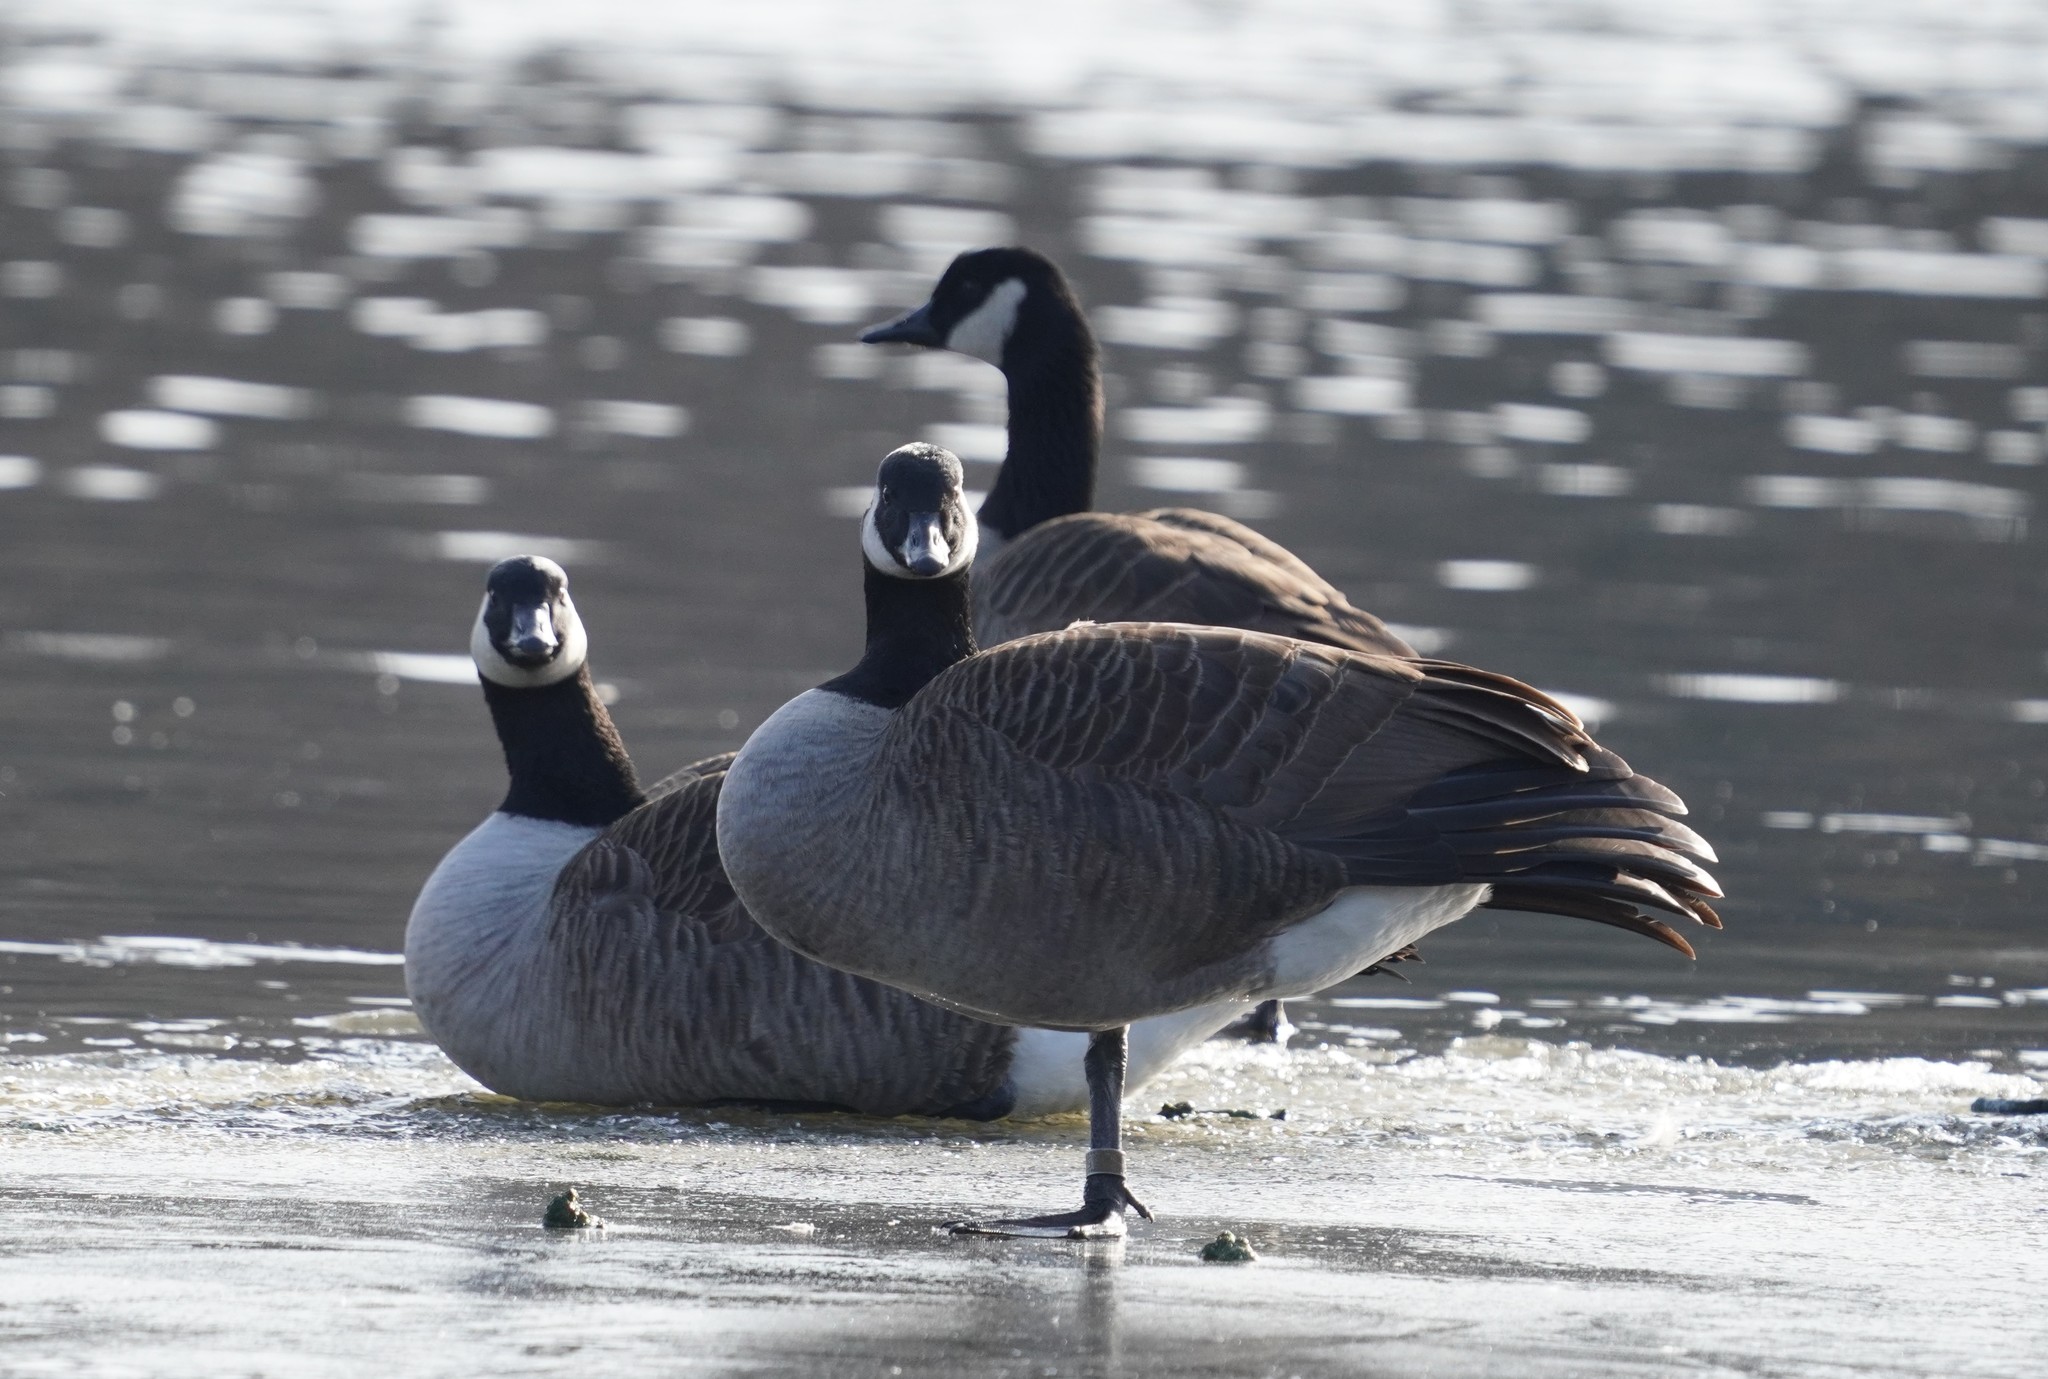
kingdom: Animalia
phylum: Chordata
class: Aves
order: Anseriformes
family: Anatidae
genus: Branta
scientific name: Branta canadensis
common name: Canada goose
